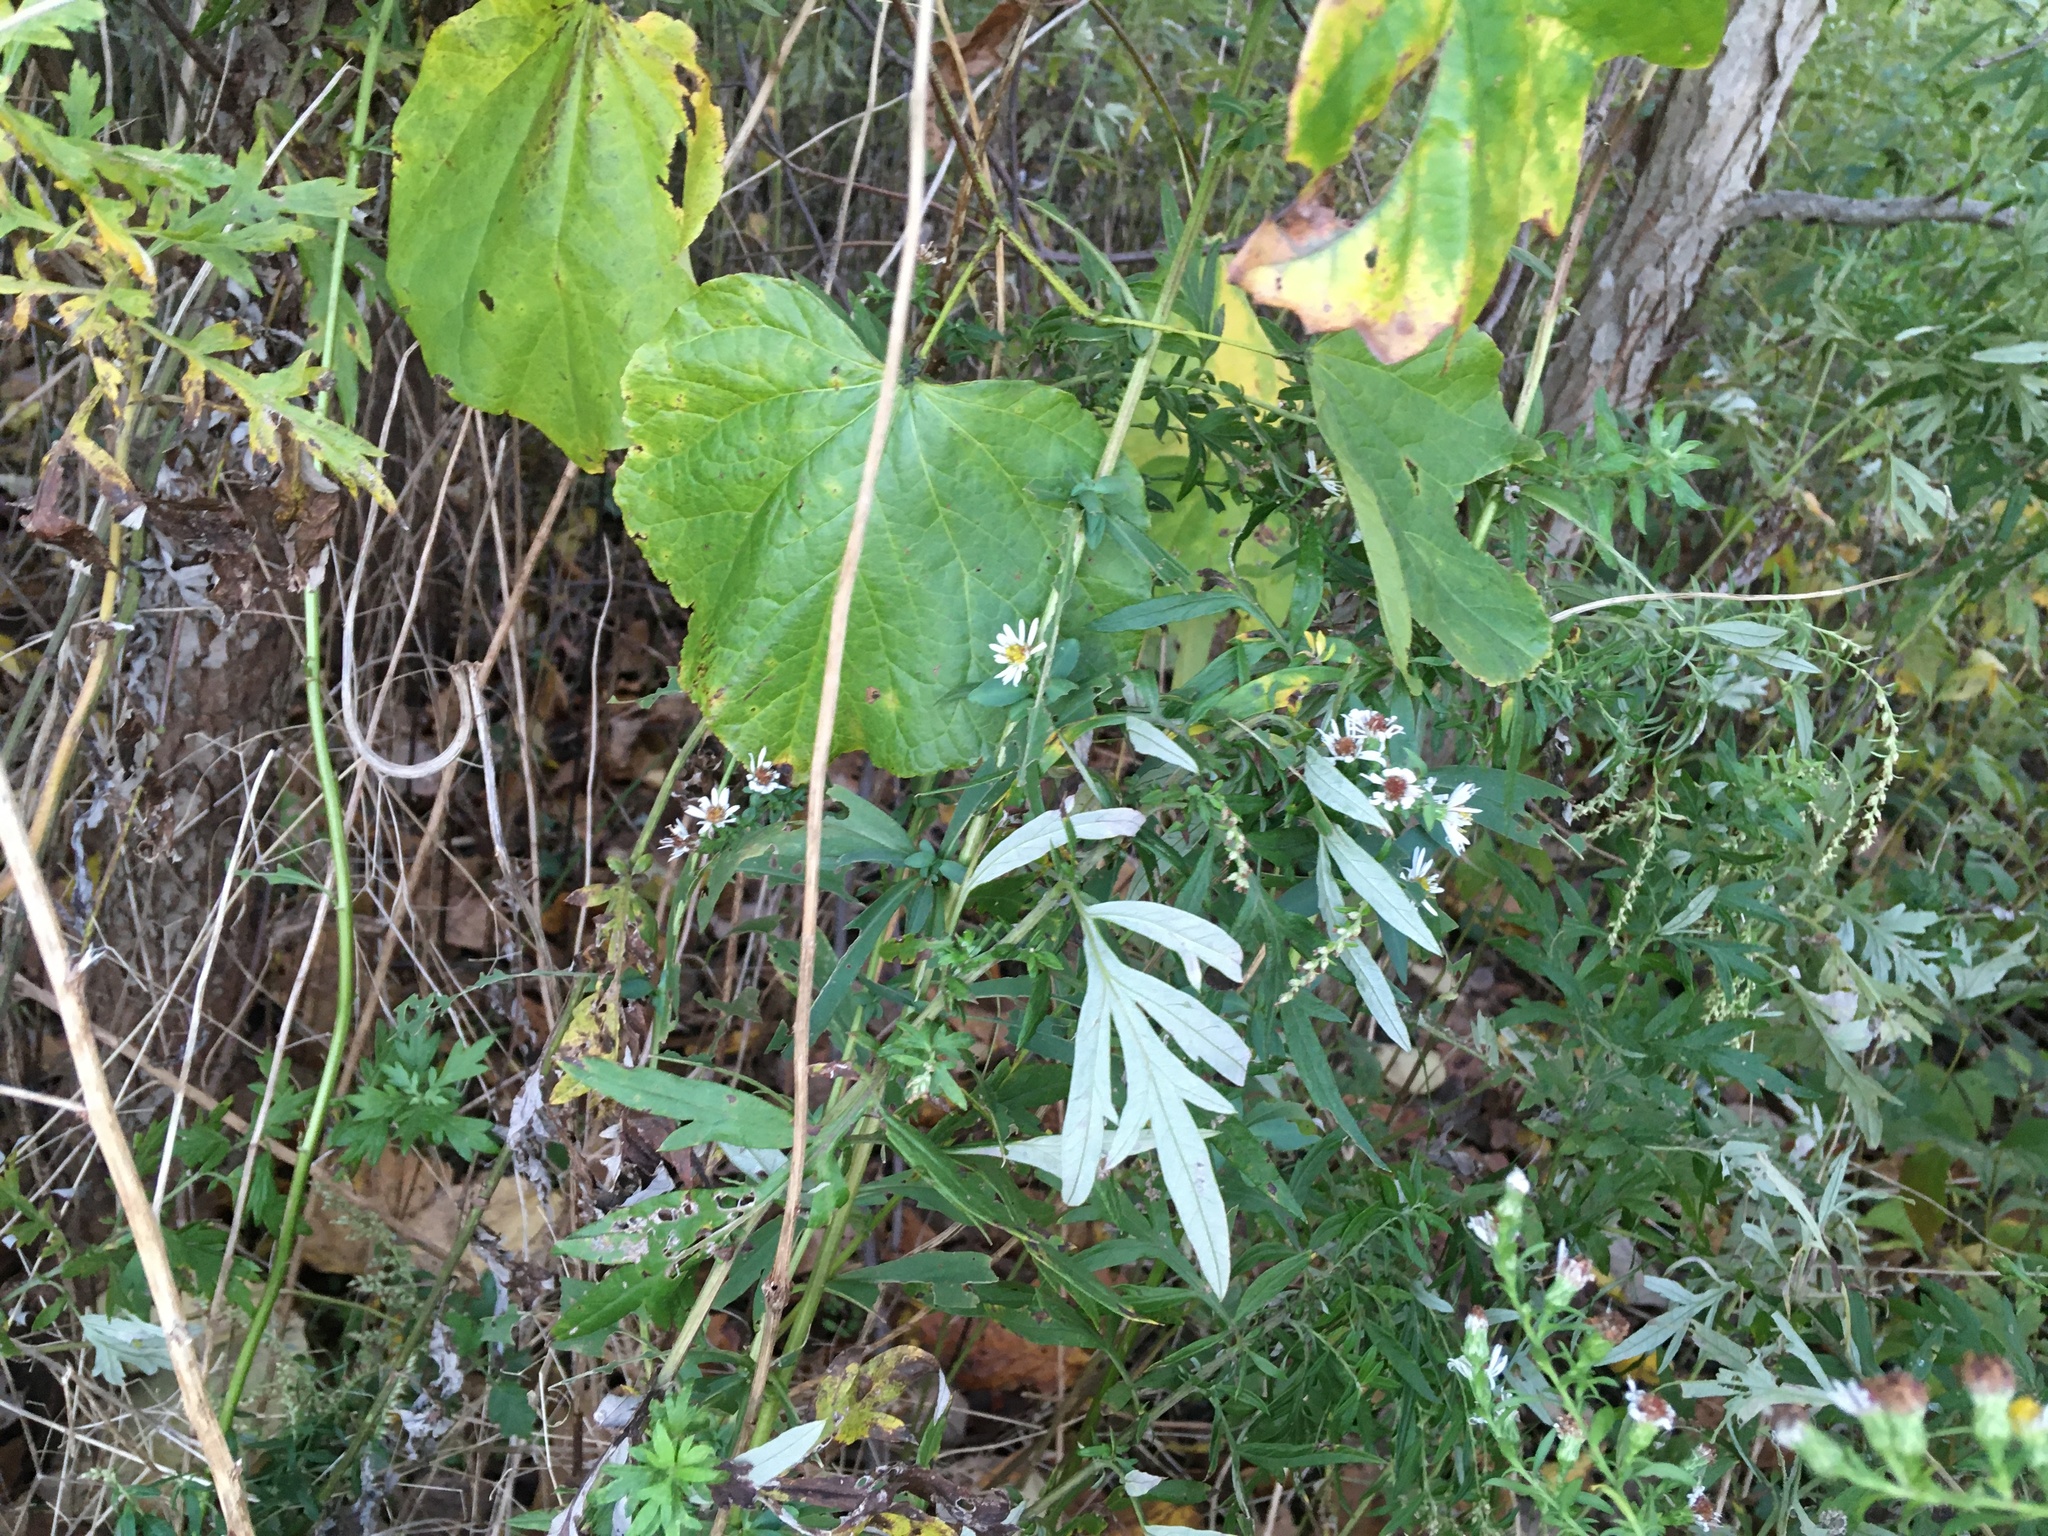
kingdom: Plantae
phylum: Tracheophyta
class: Magnoliopsida
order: Asterales
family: Asteraceae
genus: Artemisia
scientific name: Artemisia vulgaris
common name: Mugwort
